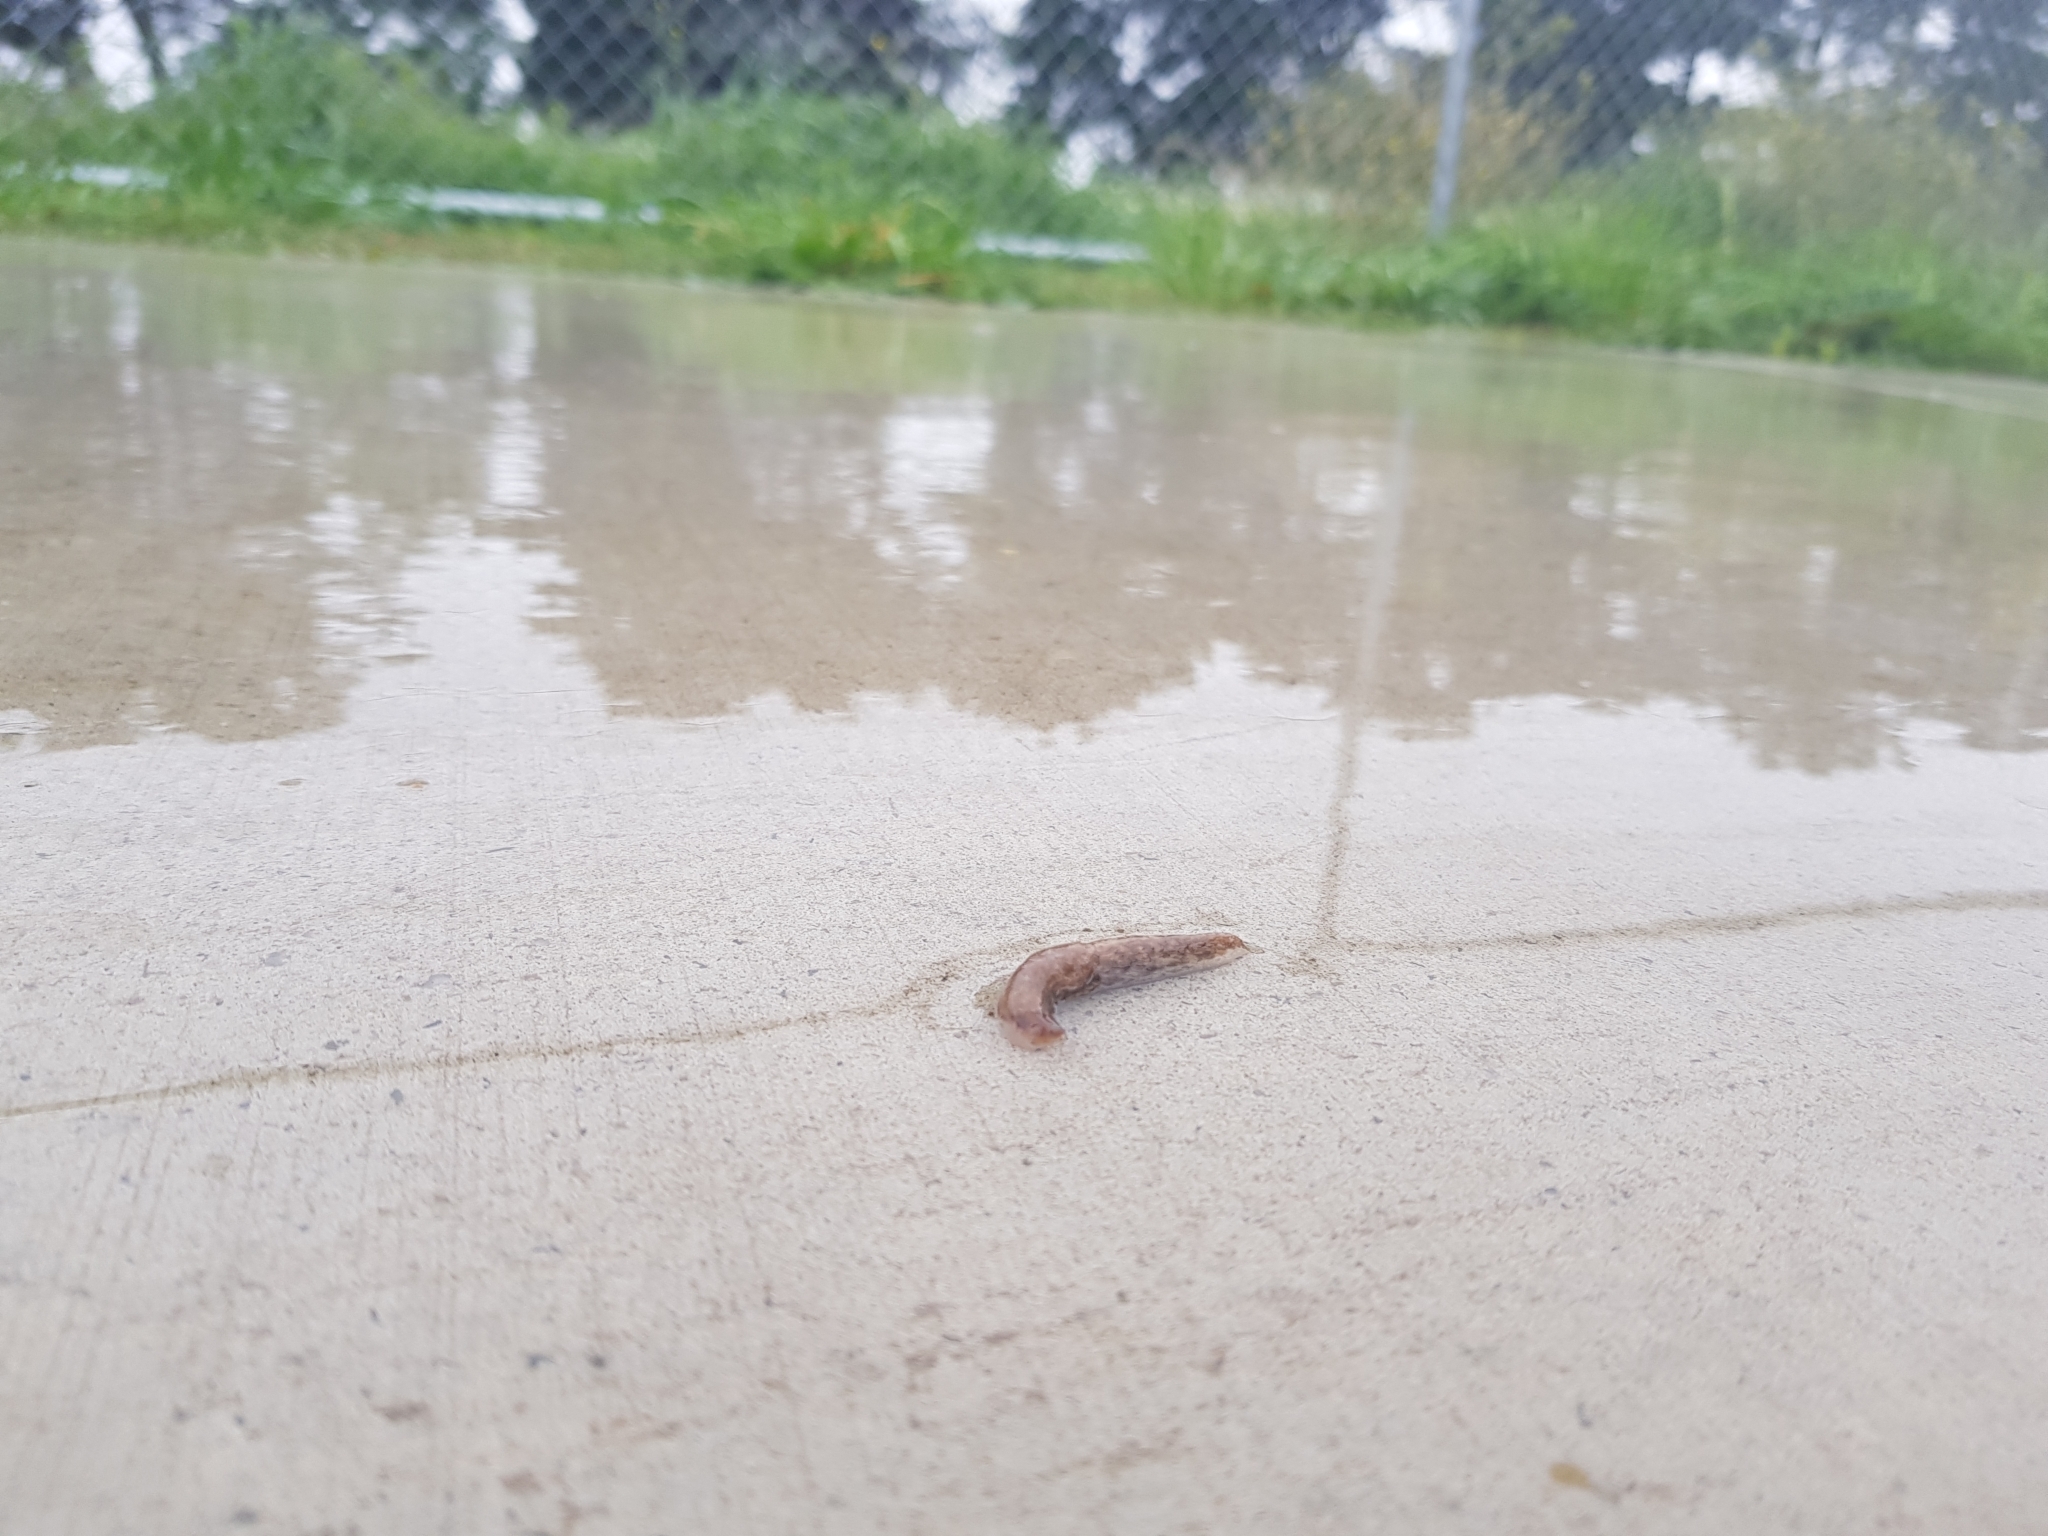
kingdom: Animalia
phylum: Mollusca
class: Gastropoda
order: Stylommatophora
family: Agriolimacidae
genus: Deroceras
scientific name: Deroceras reticulatum
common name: Gray field slug
